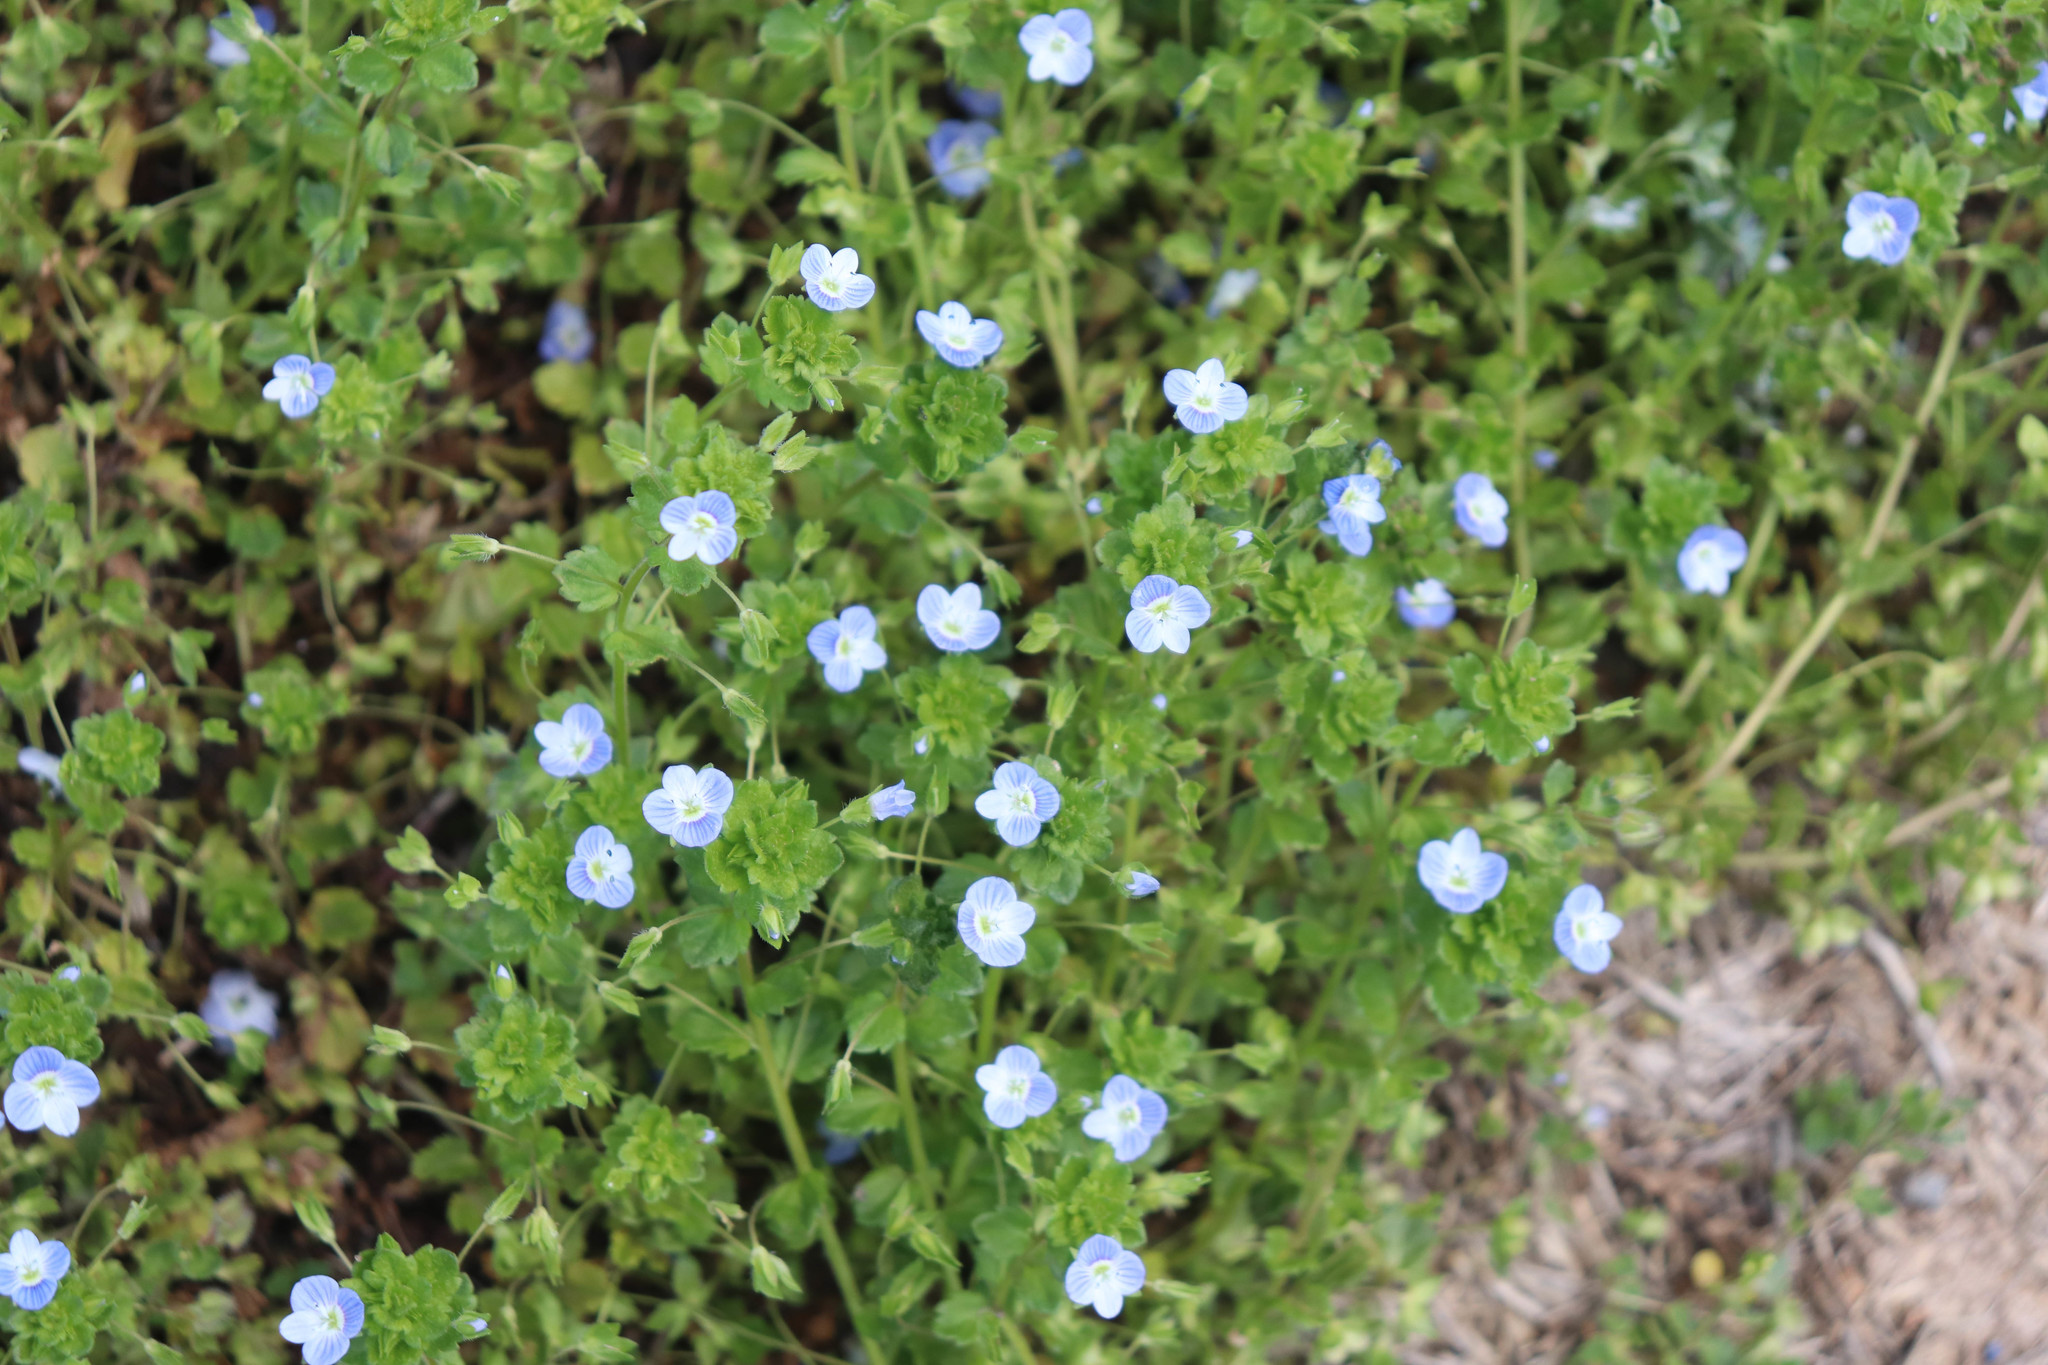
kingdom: Plantae
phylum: Tracheophyta
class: Magnoliopsida
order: Lamiales
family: Plantaginaceae
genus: Veronica
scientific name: Veronica persica
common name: Common field-speedwell
